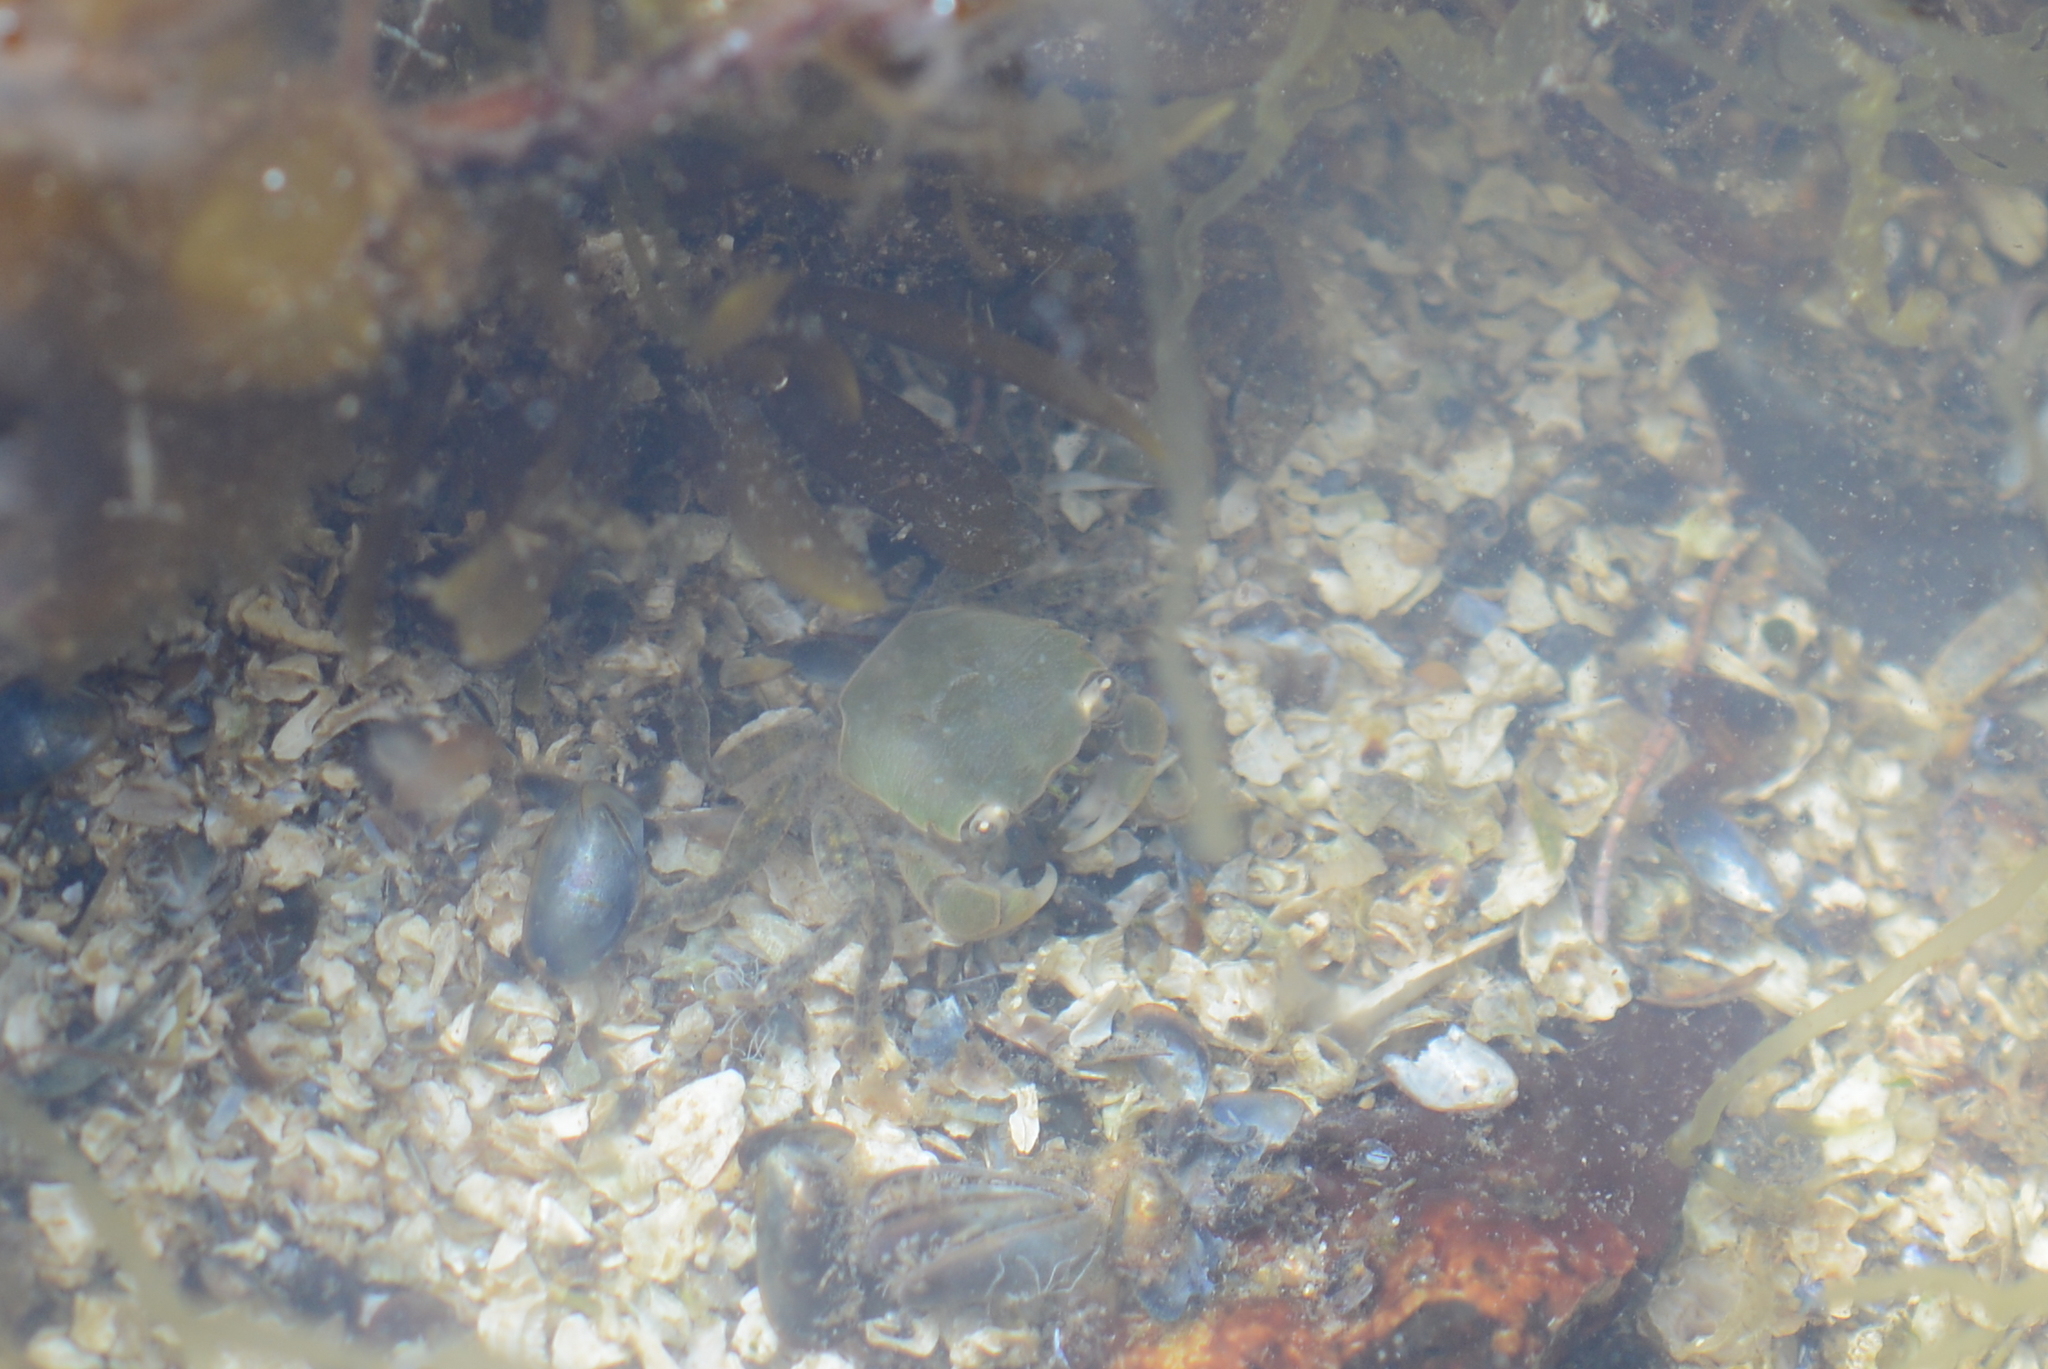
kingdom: Animalia
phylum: Arthropoda
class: Malacostraca
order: Decapoda
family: Varunidae
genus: Hemigrapsus
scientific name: Hemigrapsus oregonensis
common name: Yellow shore crab
